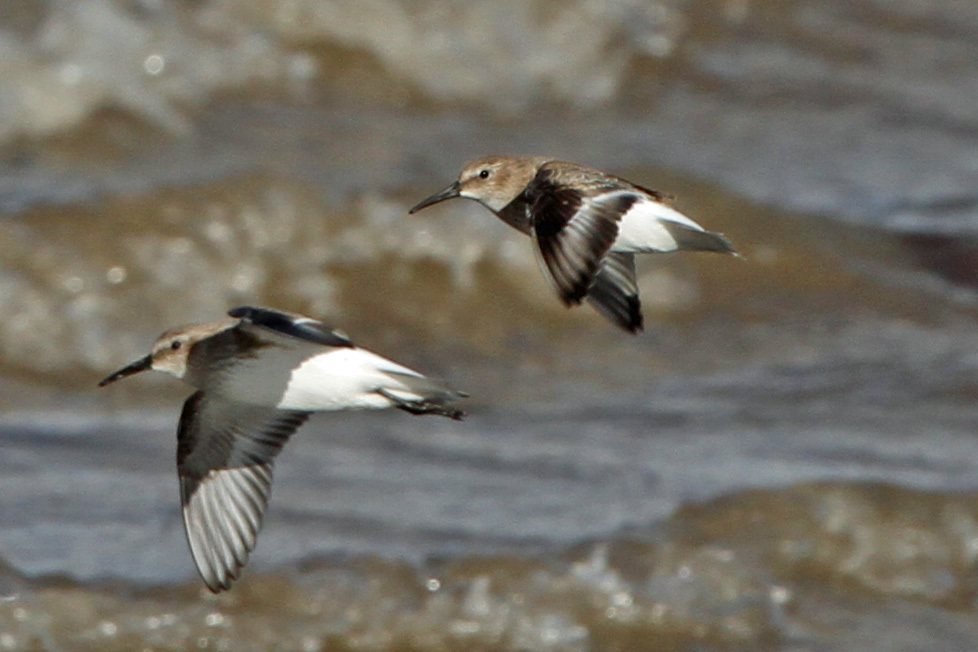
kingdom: Animalia
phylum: Chordata
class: Aves
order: Charadriiformes
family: Scolopacidae
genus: Calidris
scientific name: Calidris alpina
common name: Dunlin
